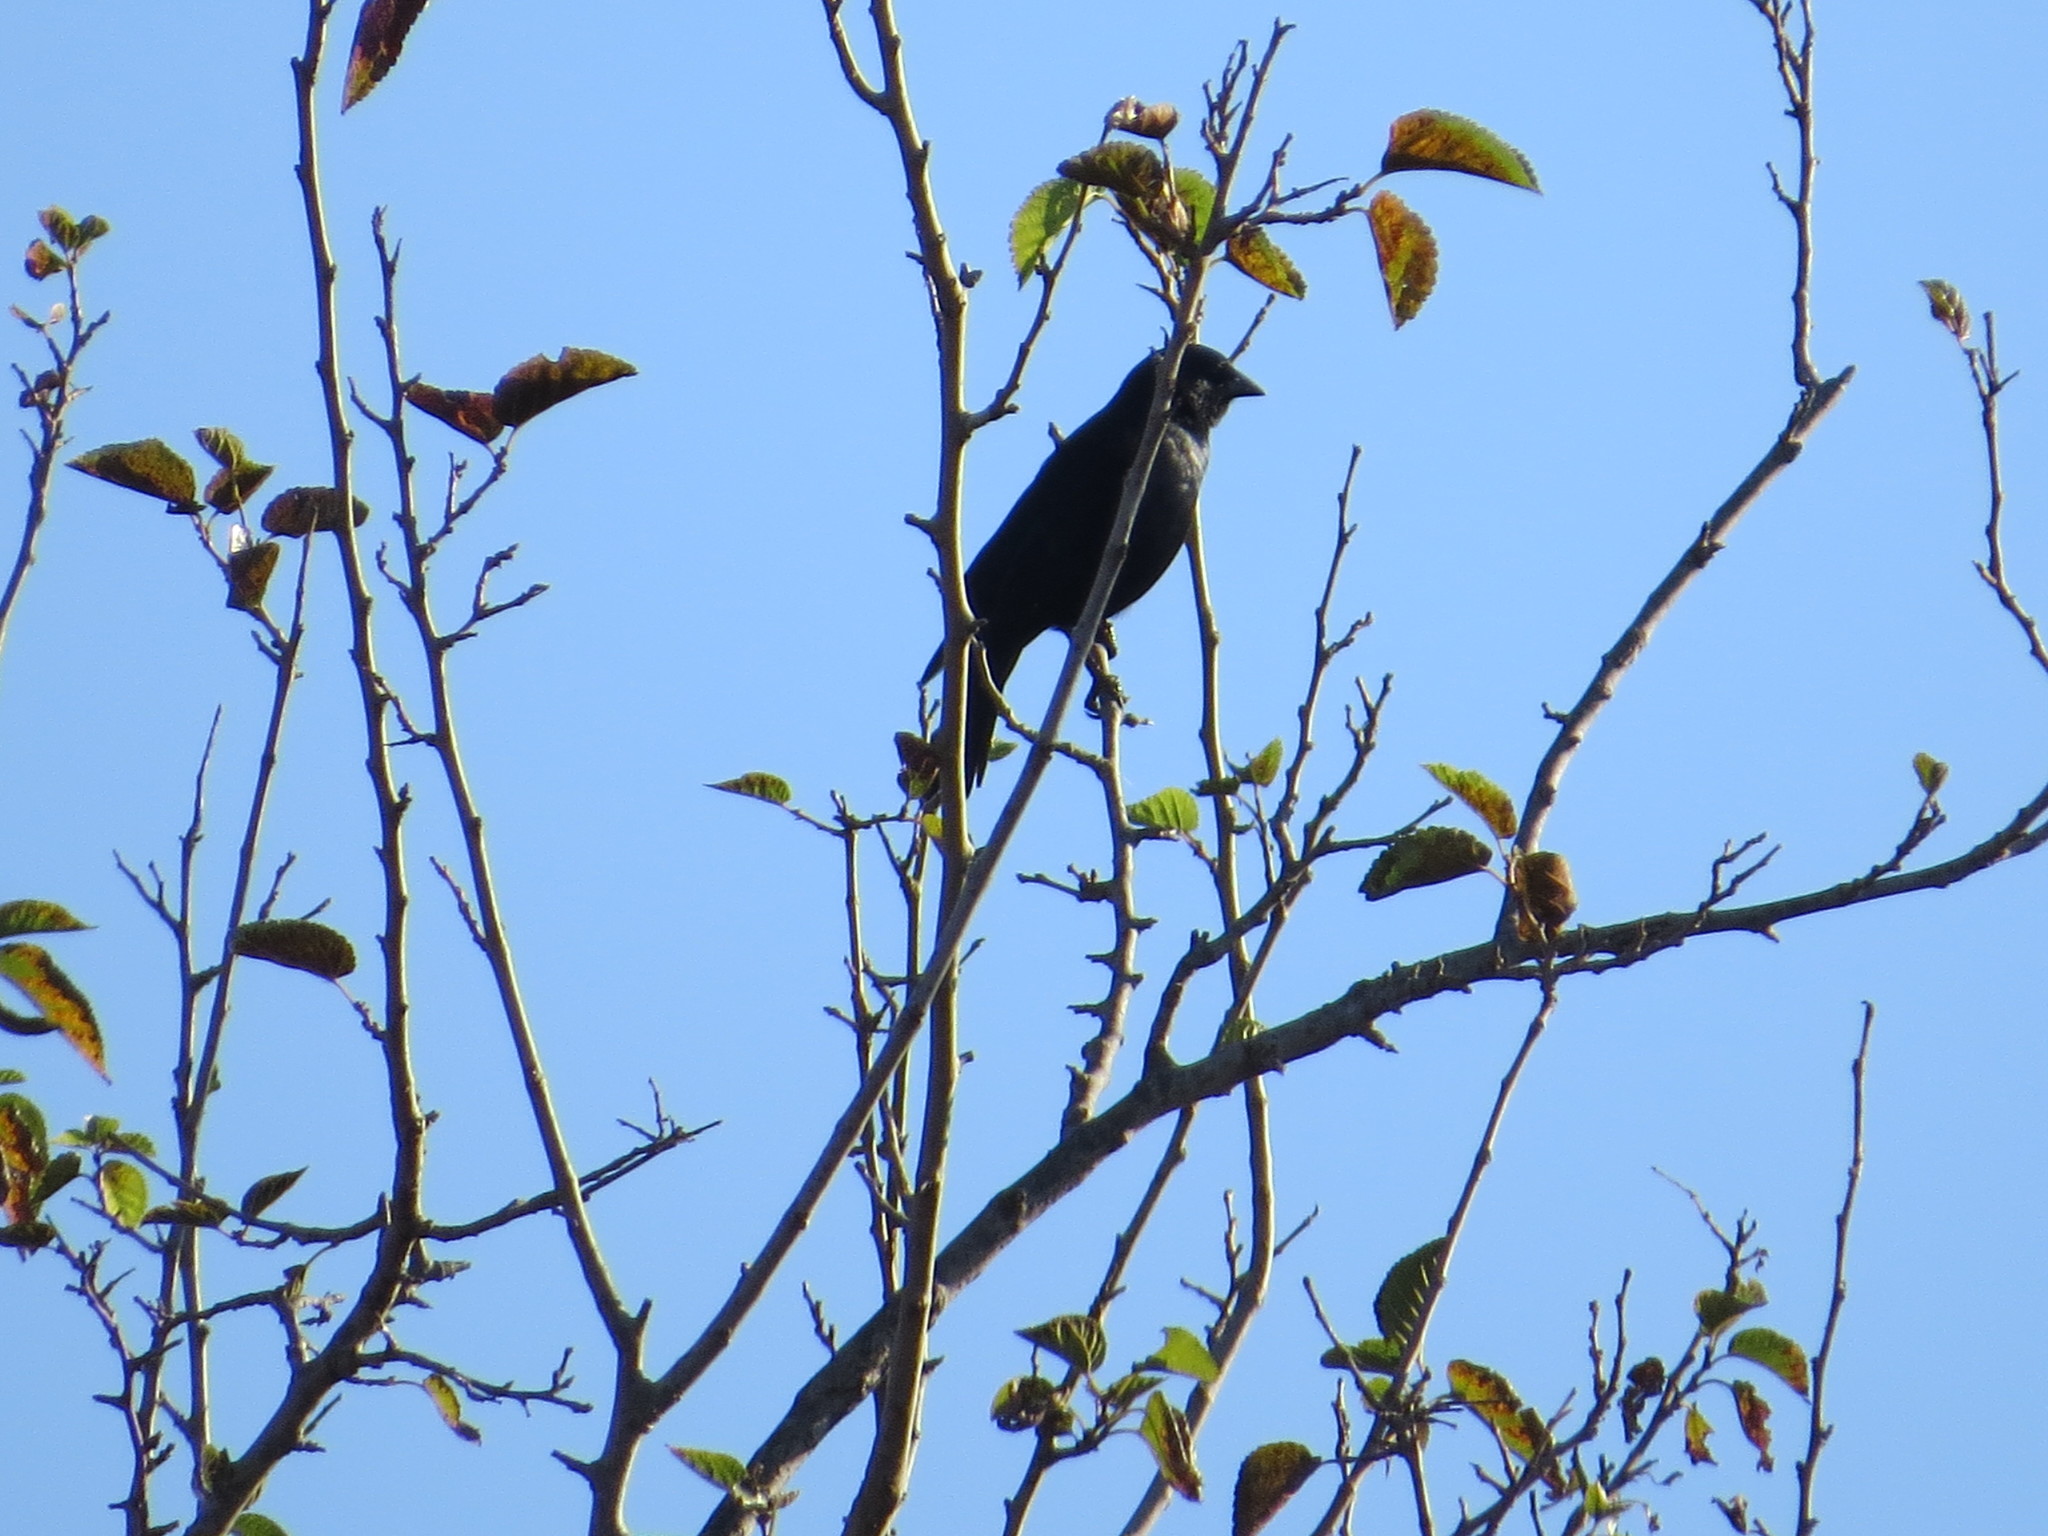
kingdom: Animalia
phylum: Chordata
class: Aves
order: Passeriformes
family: Icteridae
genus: Molothrus
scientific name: Molothrus bonariensis
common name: Shiny cowbird
